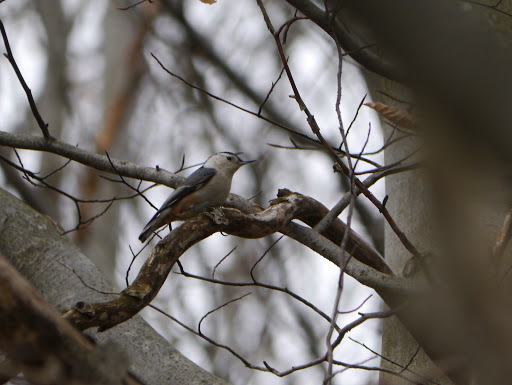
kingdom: Animalia
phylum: Chordata
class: Aves
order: Passeriformes
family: Sittidae
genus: Sitta
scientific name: Sitta carolinensis
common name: White-breasted nuthatch
